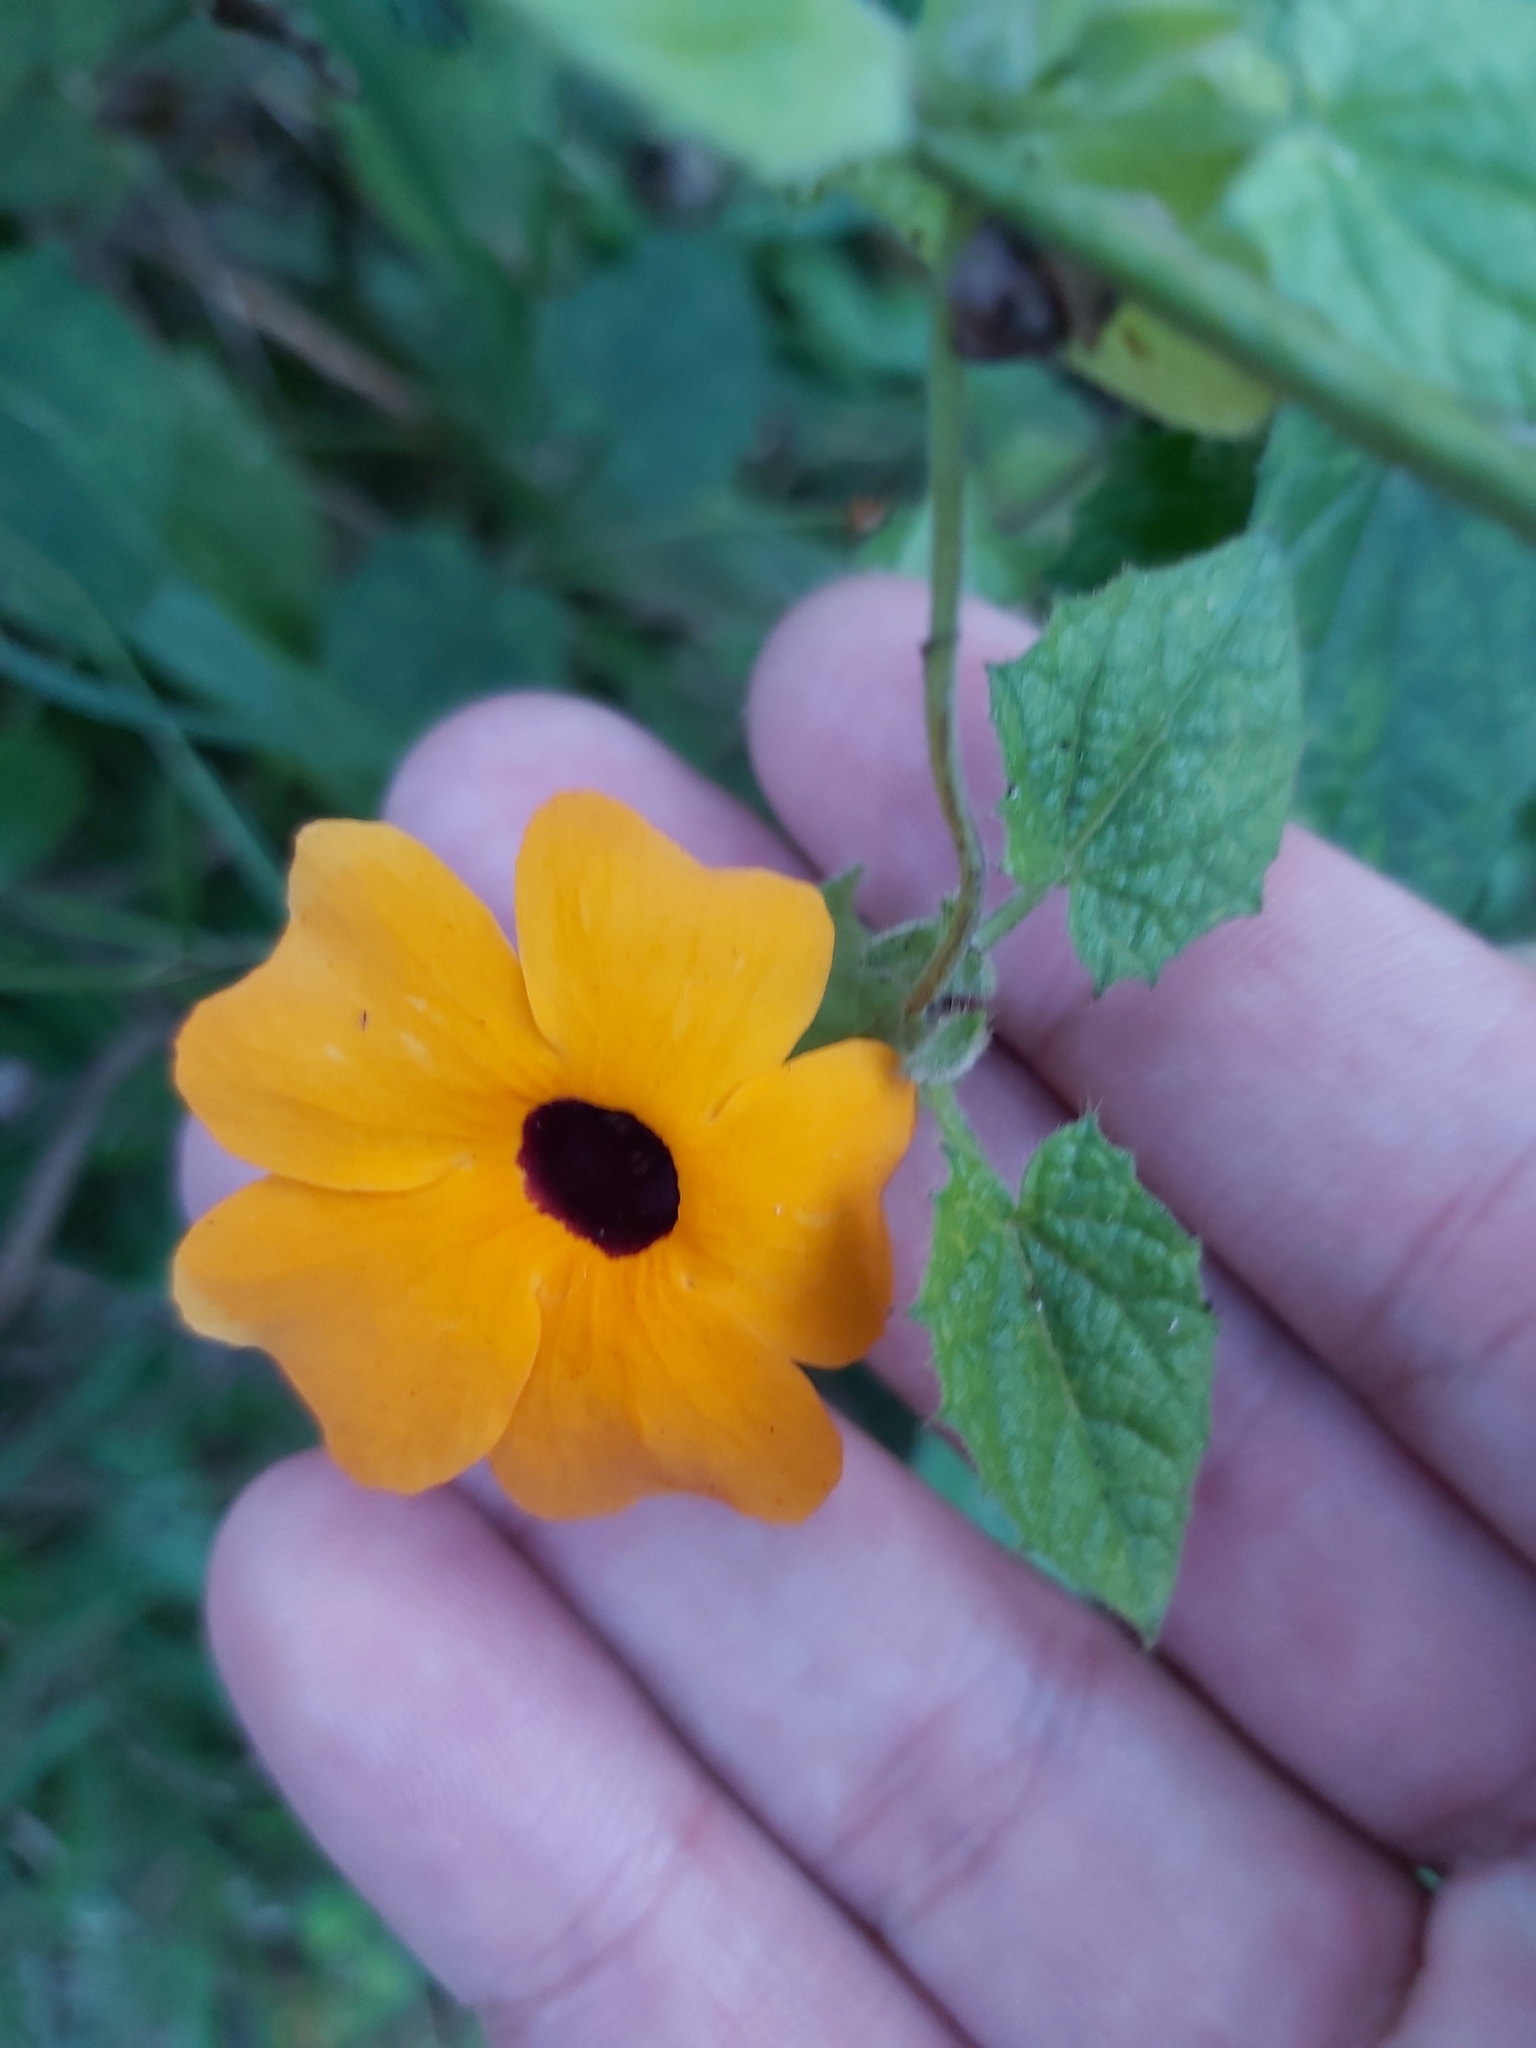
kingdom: Plantae
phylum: Tracheophyta
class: Magnoliopsida
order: Lamiales
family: Acanthaceae
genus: Thunbergia
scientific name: Thunbergia alata
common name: Blackeyed susan vine
